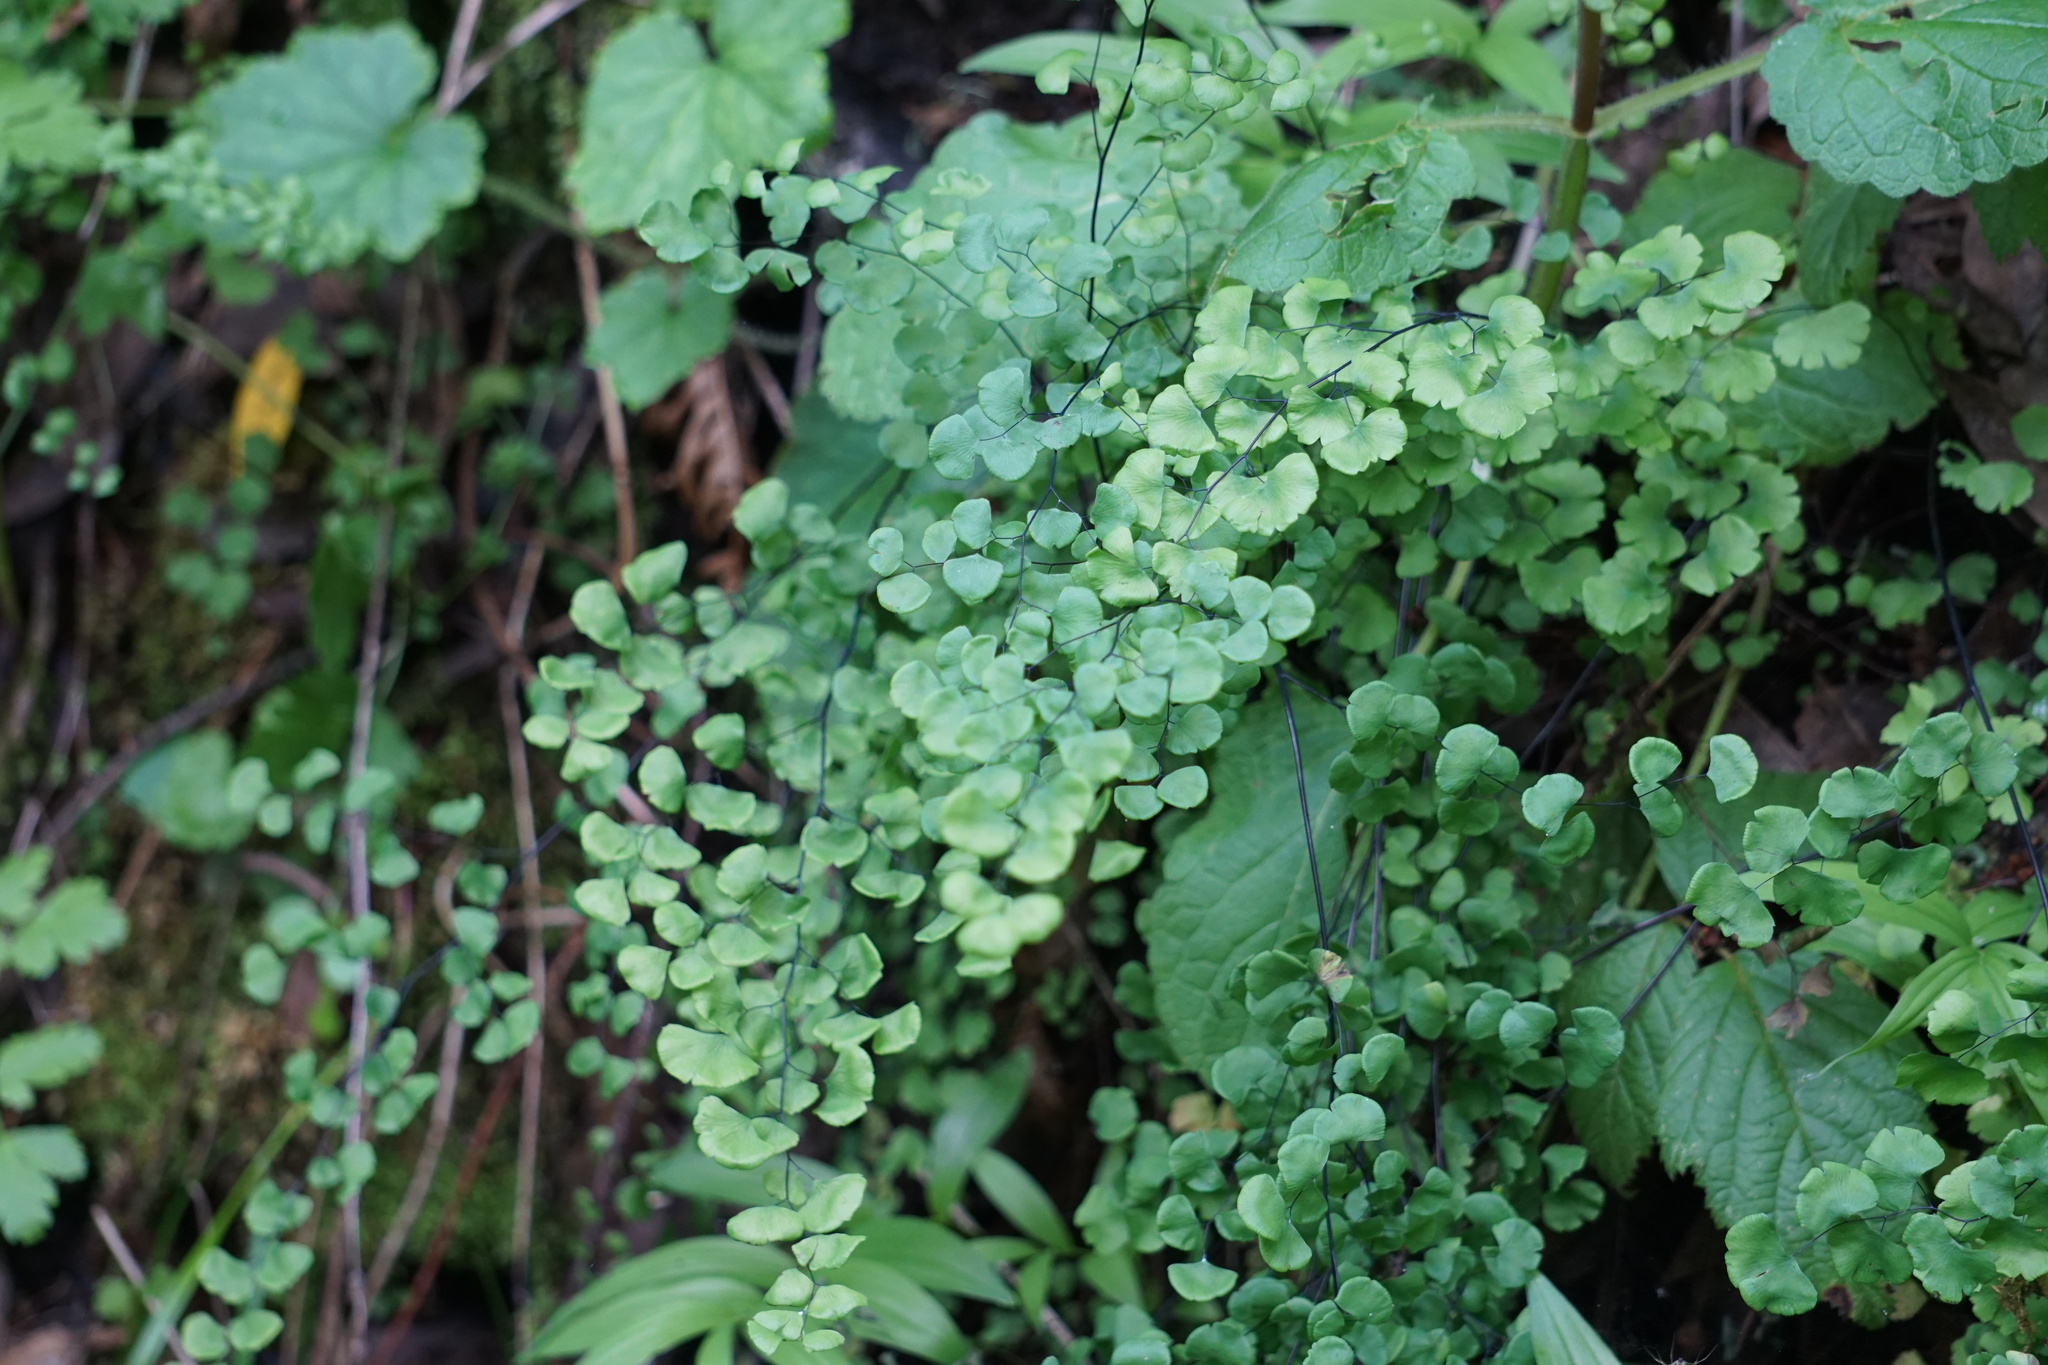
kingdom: Plantae
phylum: Tracheophyta
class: Polypodiopsida
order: Polypodiales
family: Pteridaceae
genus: Adiantum
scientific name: Adiantum jordanii
